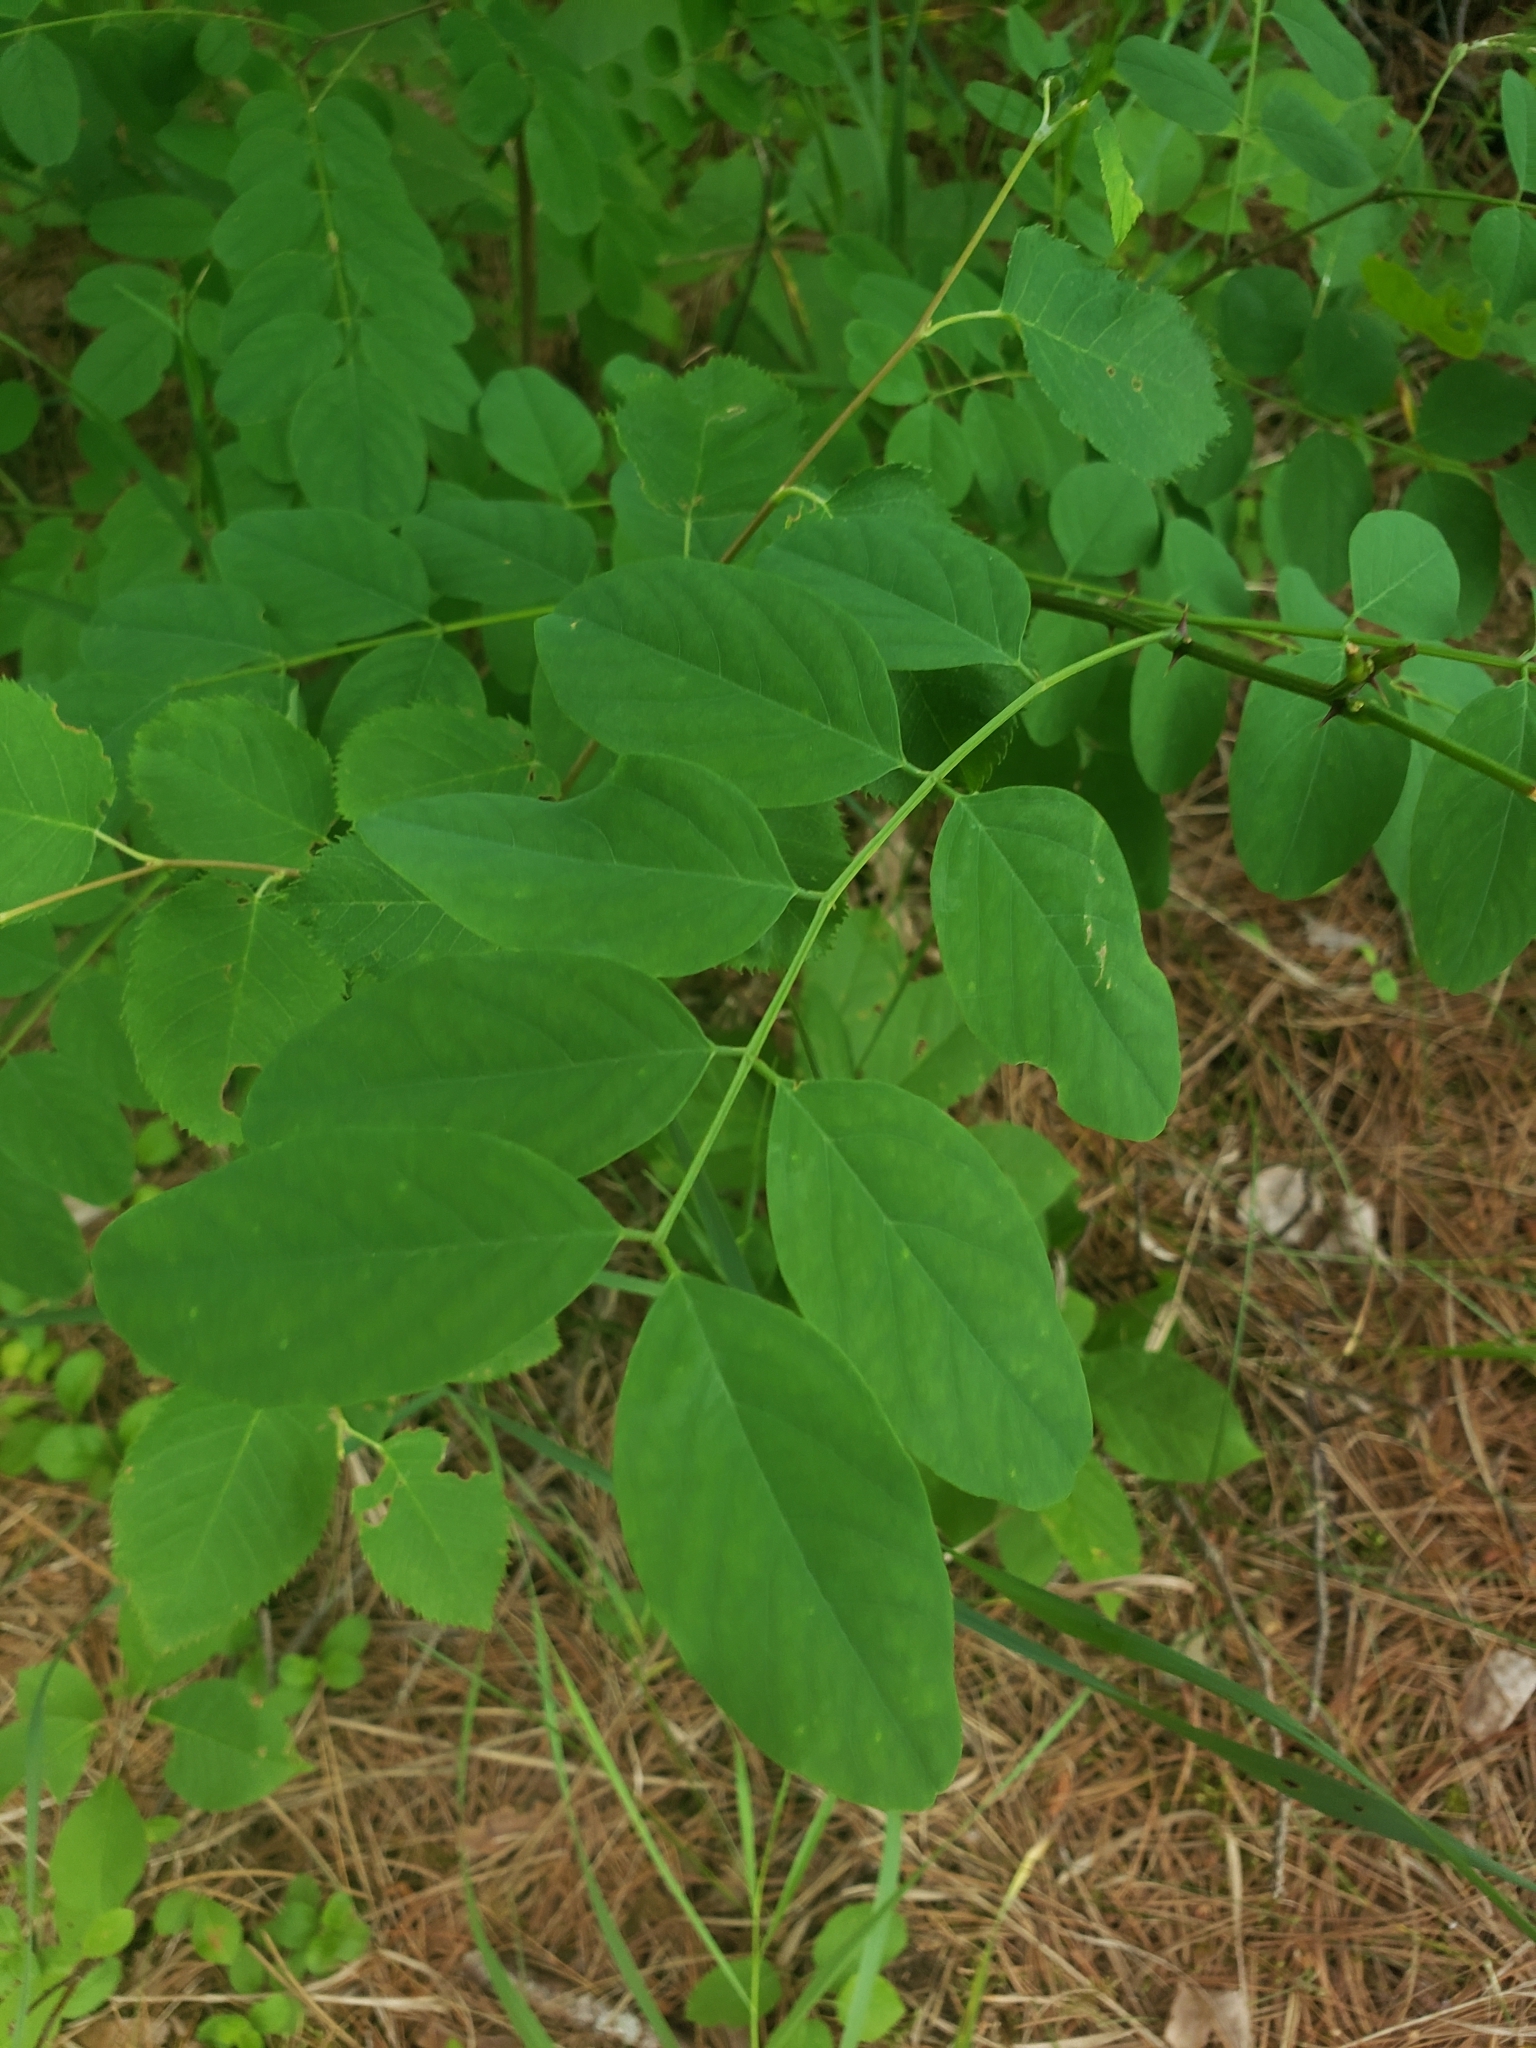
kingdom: Plantae
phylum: Tracheophyta
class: Magnoliopsida
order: Fabales
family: Fabaceae
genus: Robinia
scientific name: Robinia pseudoacacia
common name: Black locust
